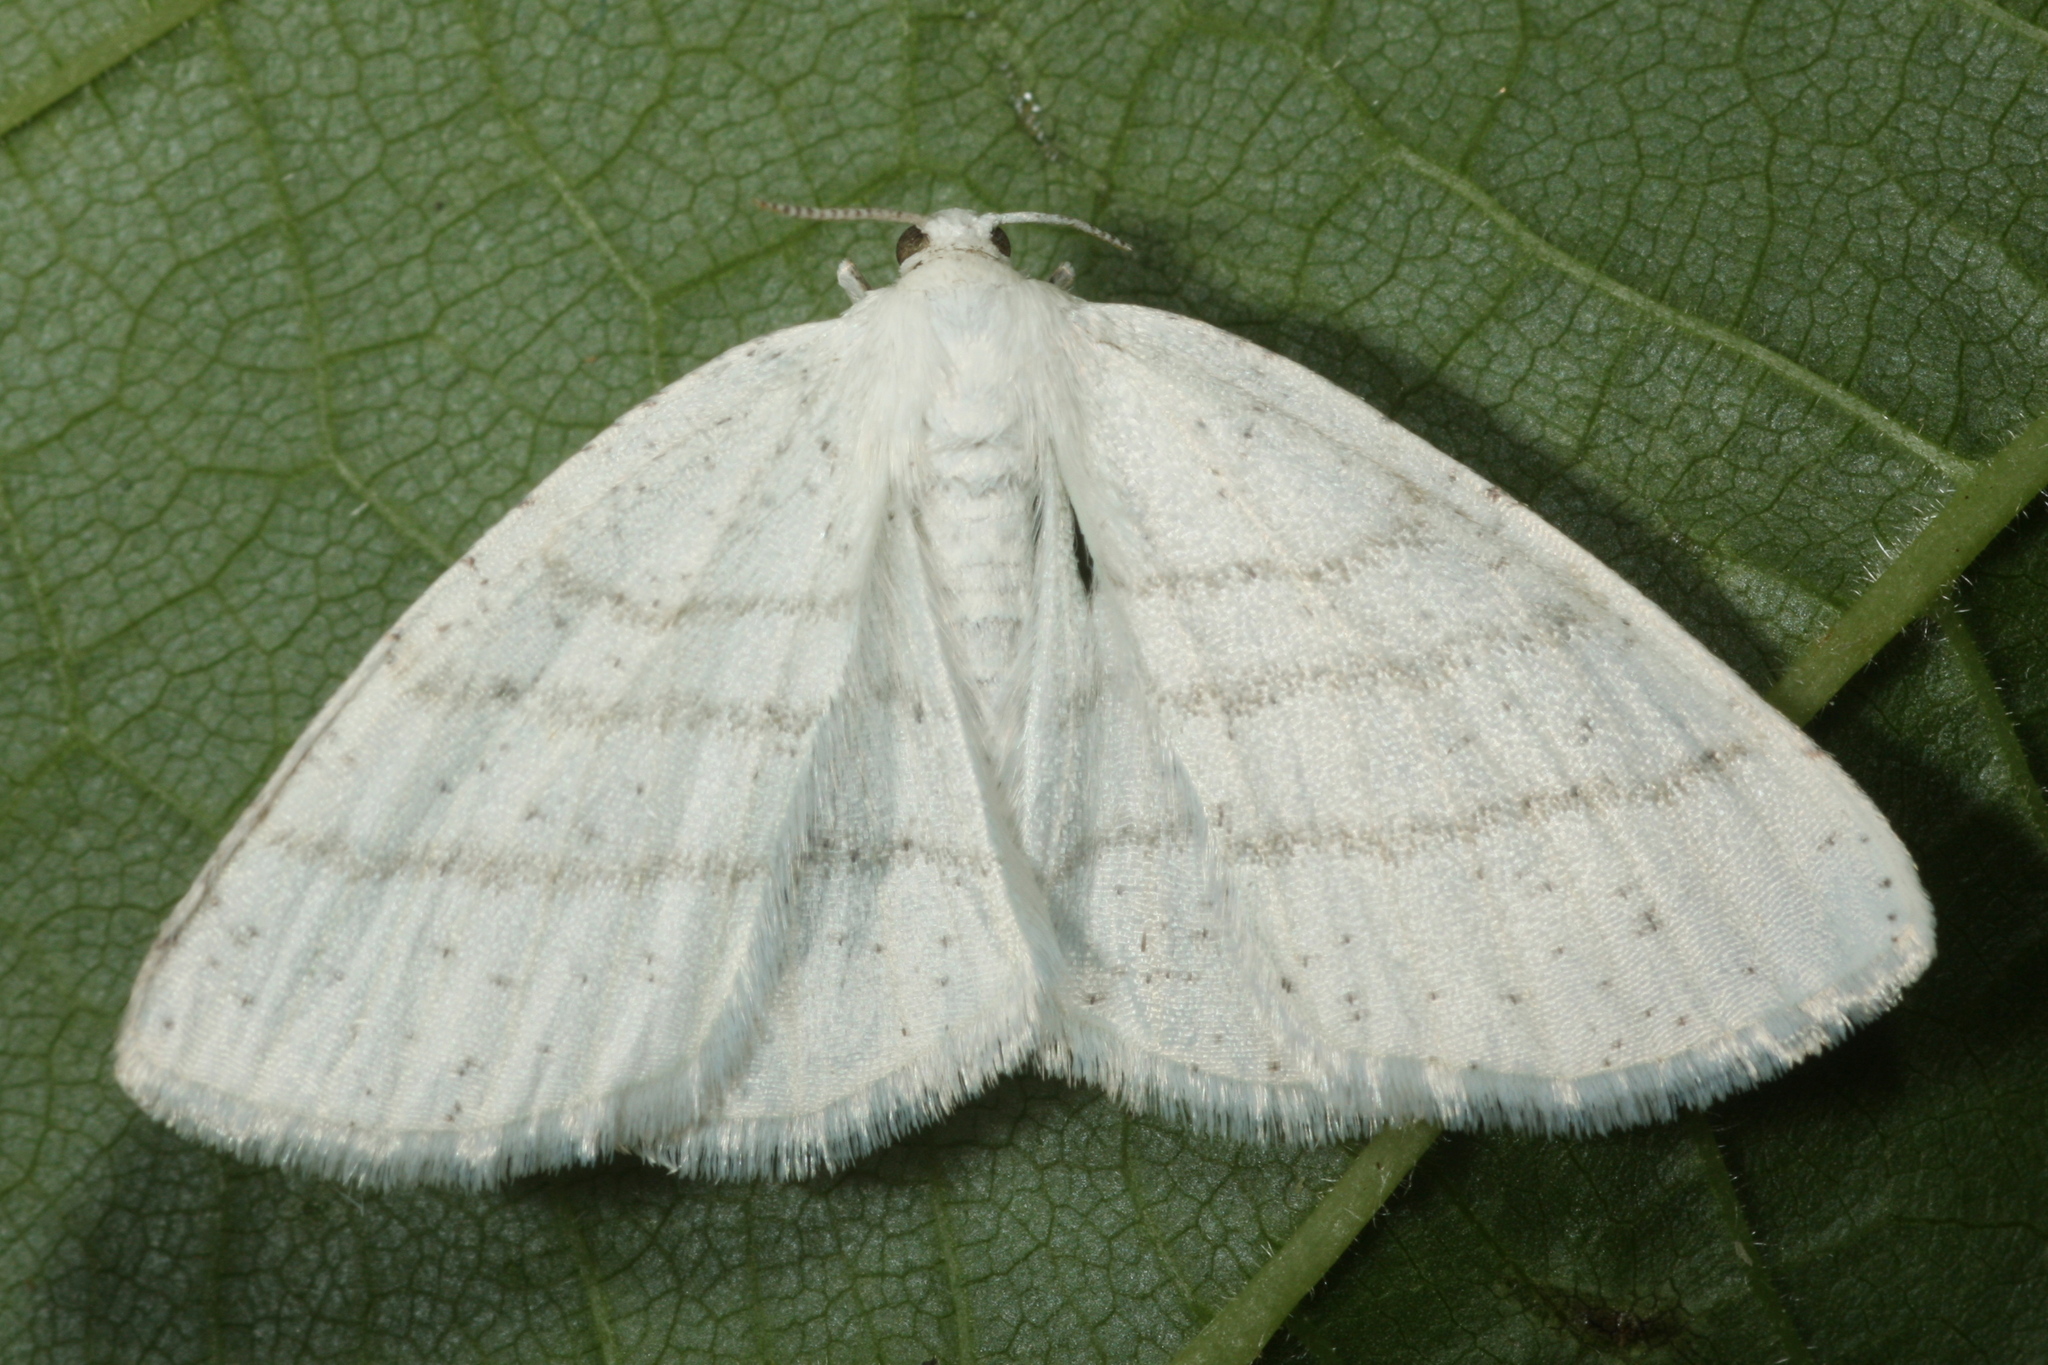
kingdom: Animalia
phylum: Arthropoda
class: Insecta
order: Lepidoptera
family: Geometridae
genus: Cabera
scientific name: Cabera pusaria
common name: Common white wave
